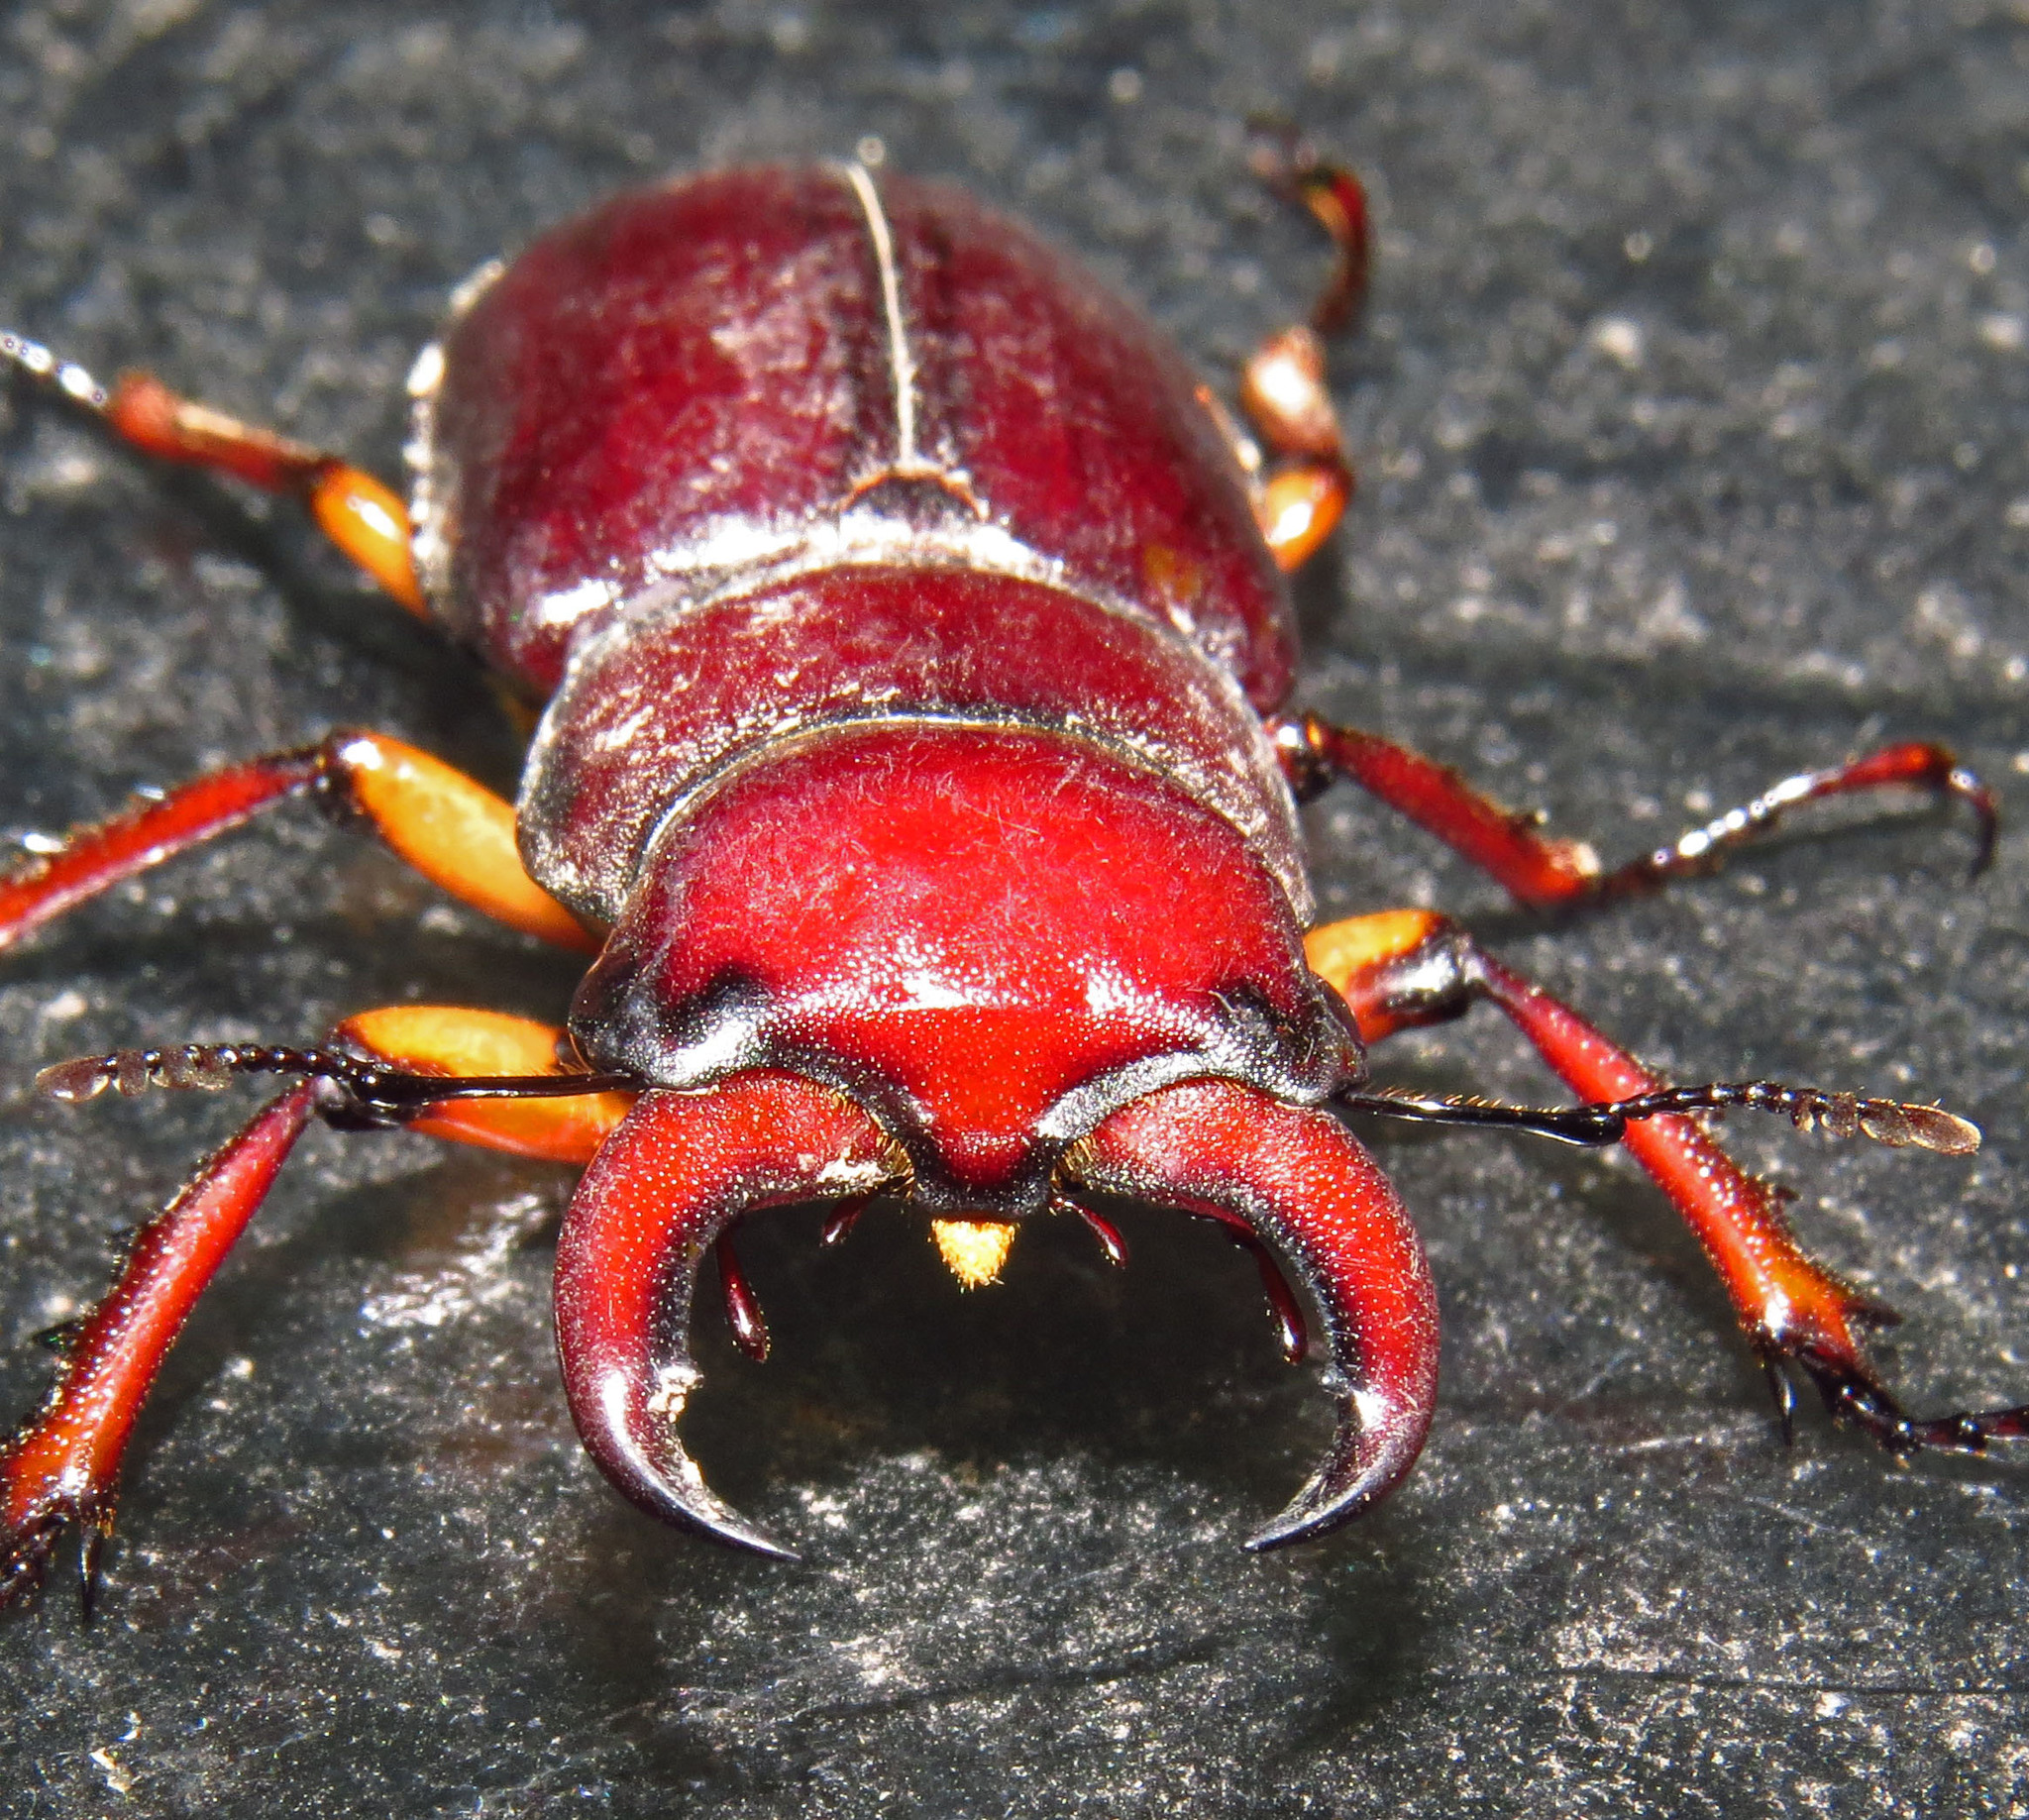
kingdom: Animalia
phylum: Arthropoda
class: Insecta
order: Coleoptera
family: Lucanidae
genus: Lucanus
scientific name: Lucanus capreolus
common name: Stag beetle
